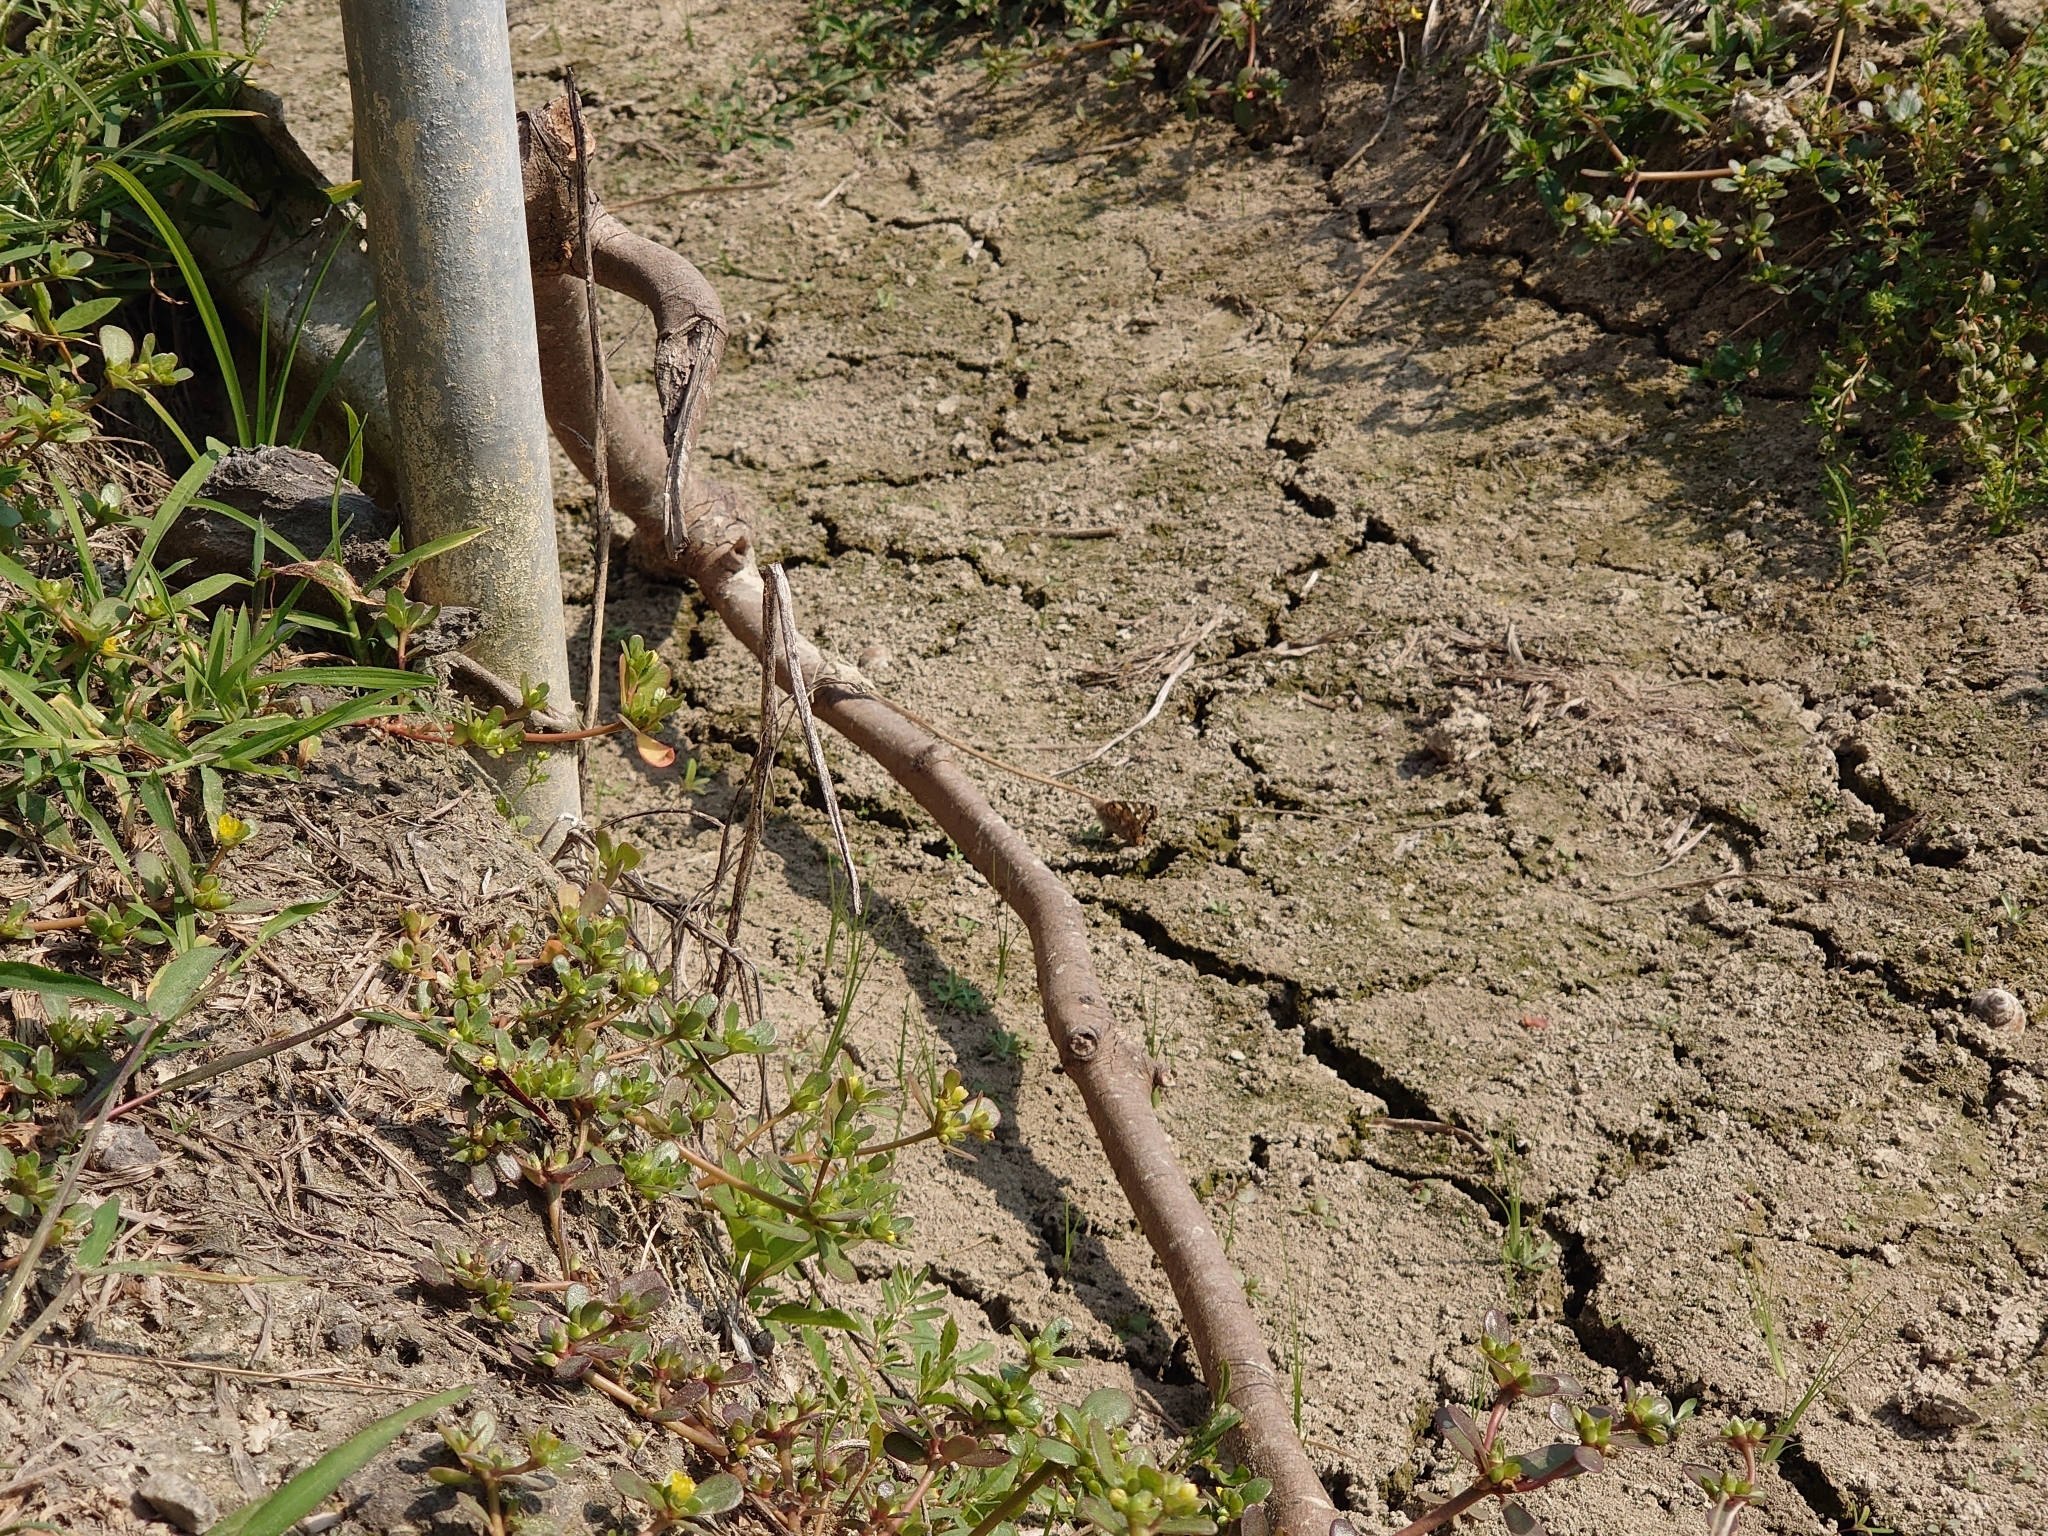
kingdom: Animalia
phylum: Arthropoda
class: Insecta
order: Lepidoptera
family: Nymphalidae
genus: Vanessa
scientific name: Vanessa cardui
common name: Painted lady
